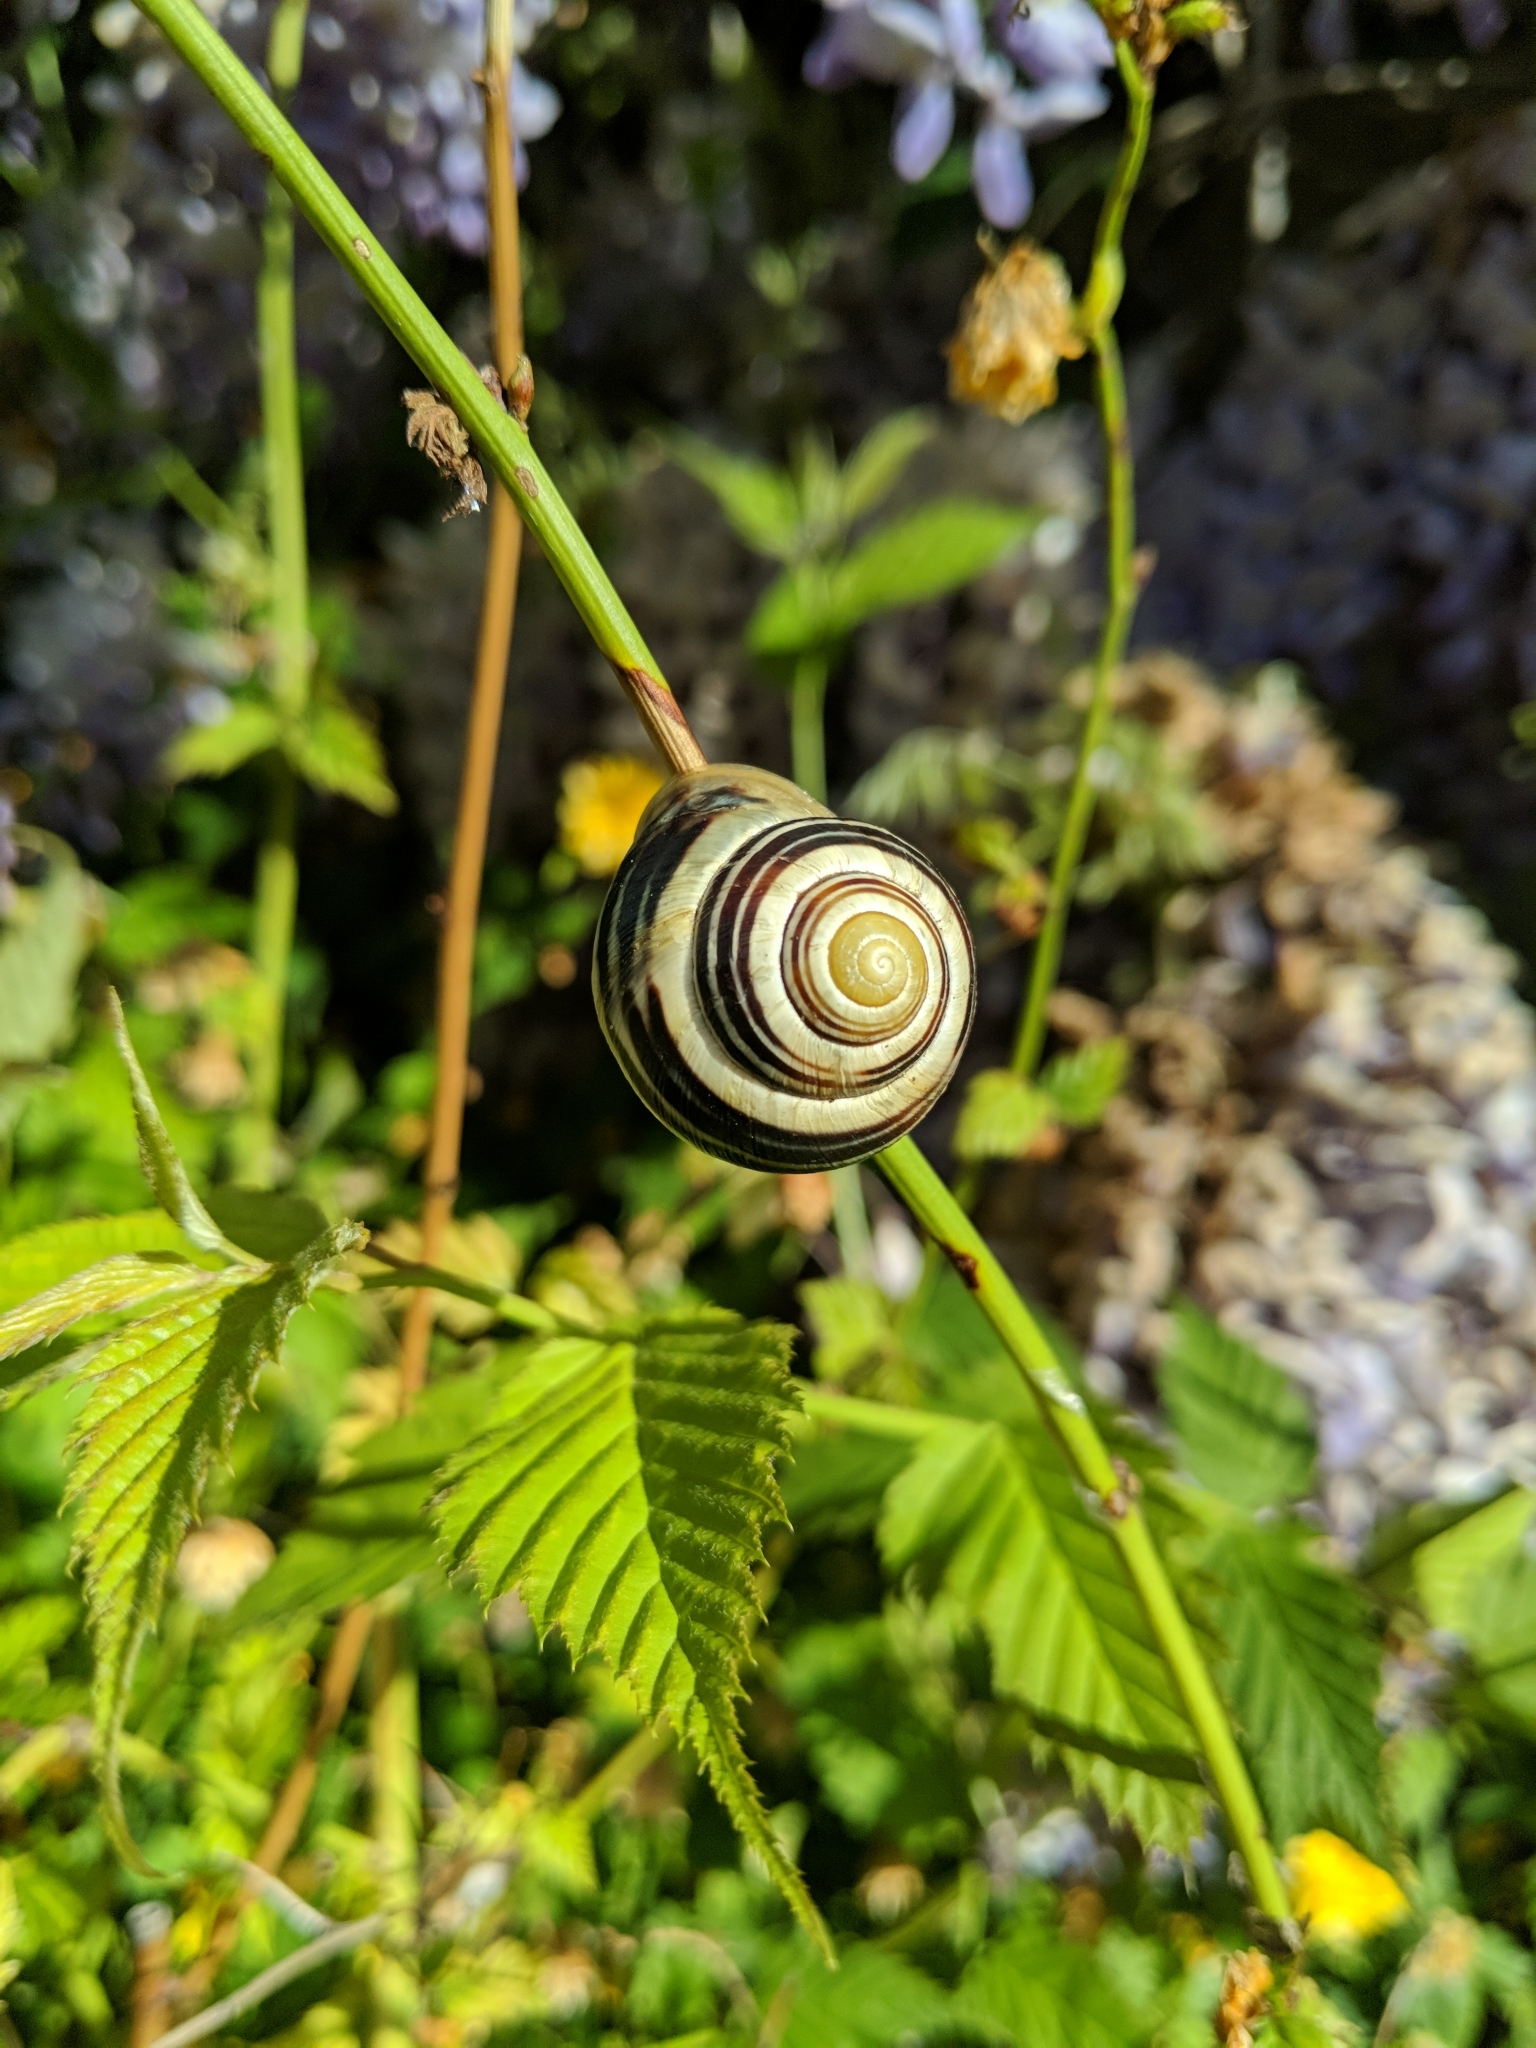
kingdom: Animalia
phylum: Mollusca
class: Gastropoda
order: Stylommatophora
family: Helicidae
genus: Cepaea
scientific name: Cepaea nemoralis
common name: Grovesnail
